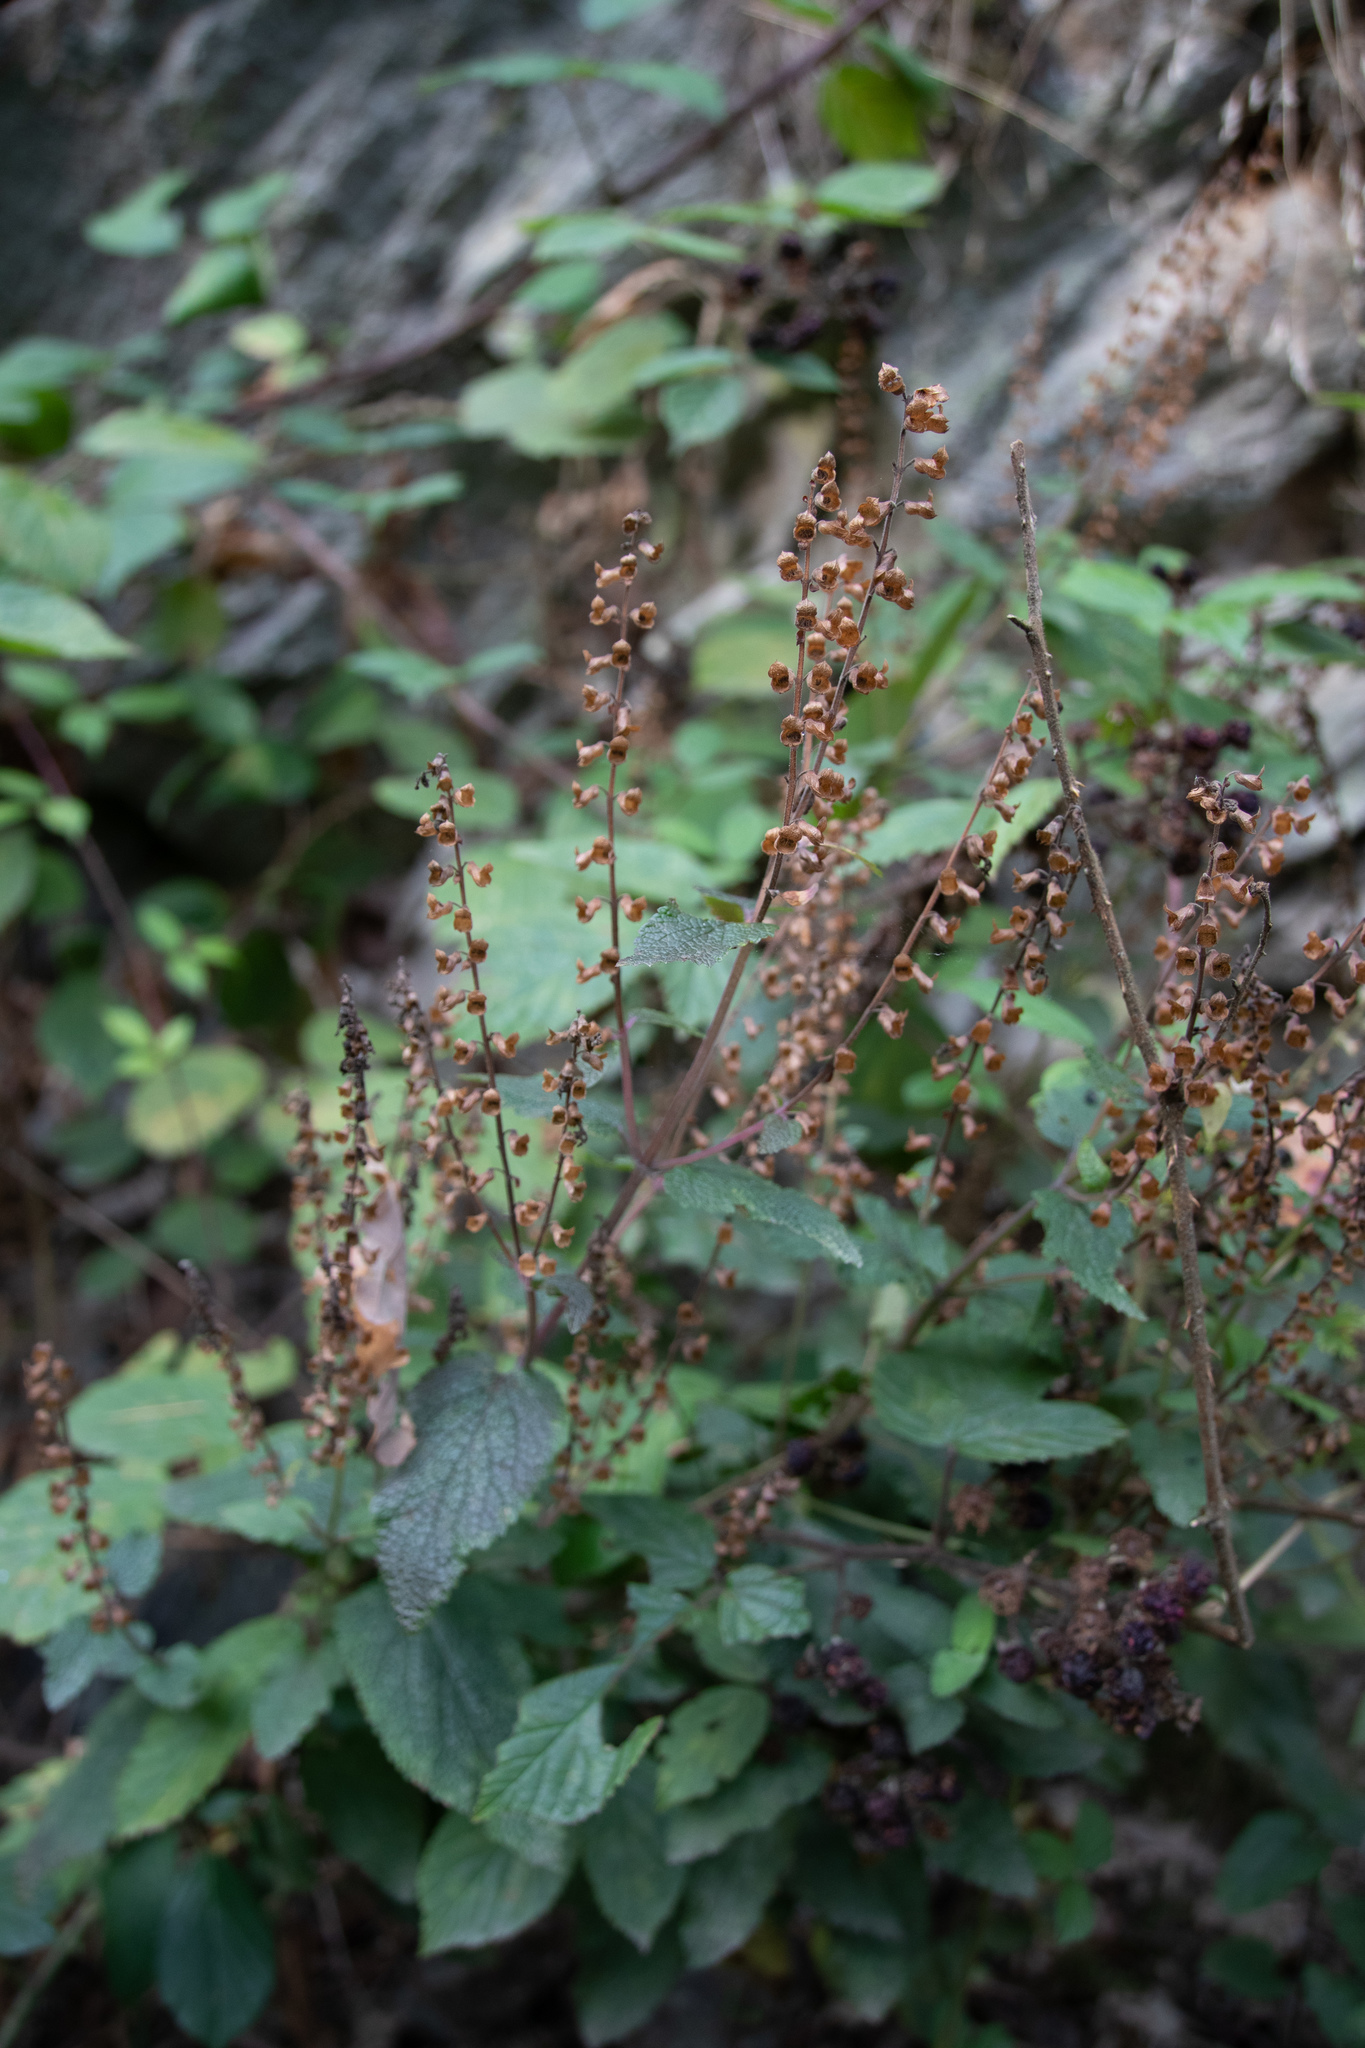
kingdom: Plantae
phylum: Tracheophyta
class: Magnoliopsida
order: Lamiales
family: Lamiaceae
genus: Teucrium
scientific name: Teucrium scorodonia
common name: Woodland germander
